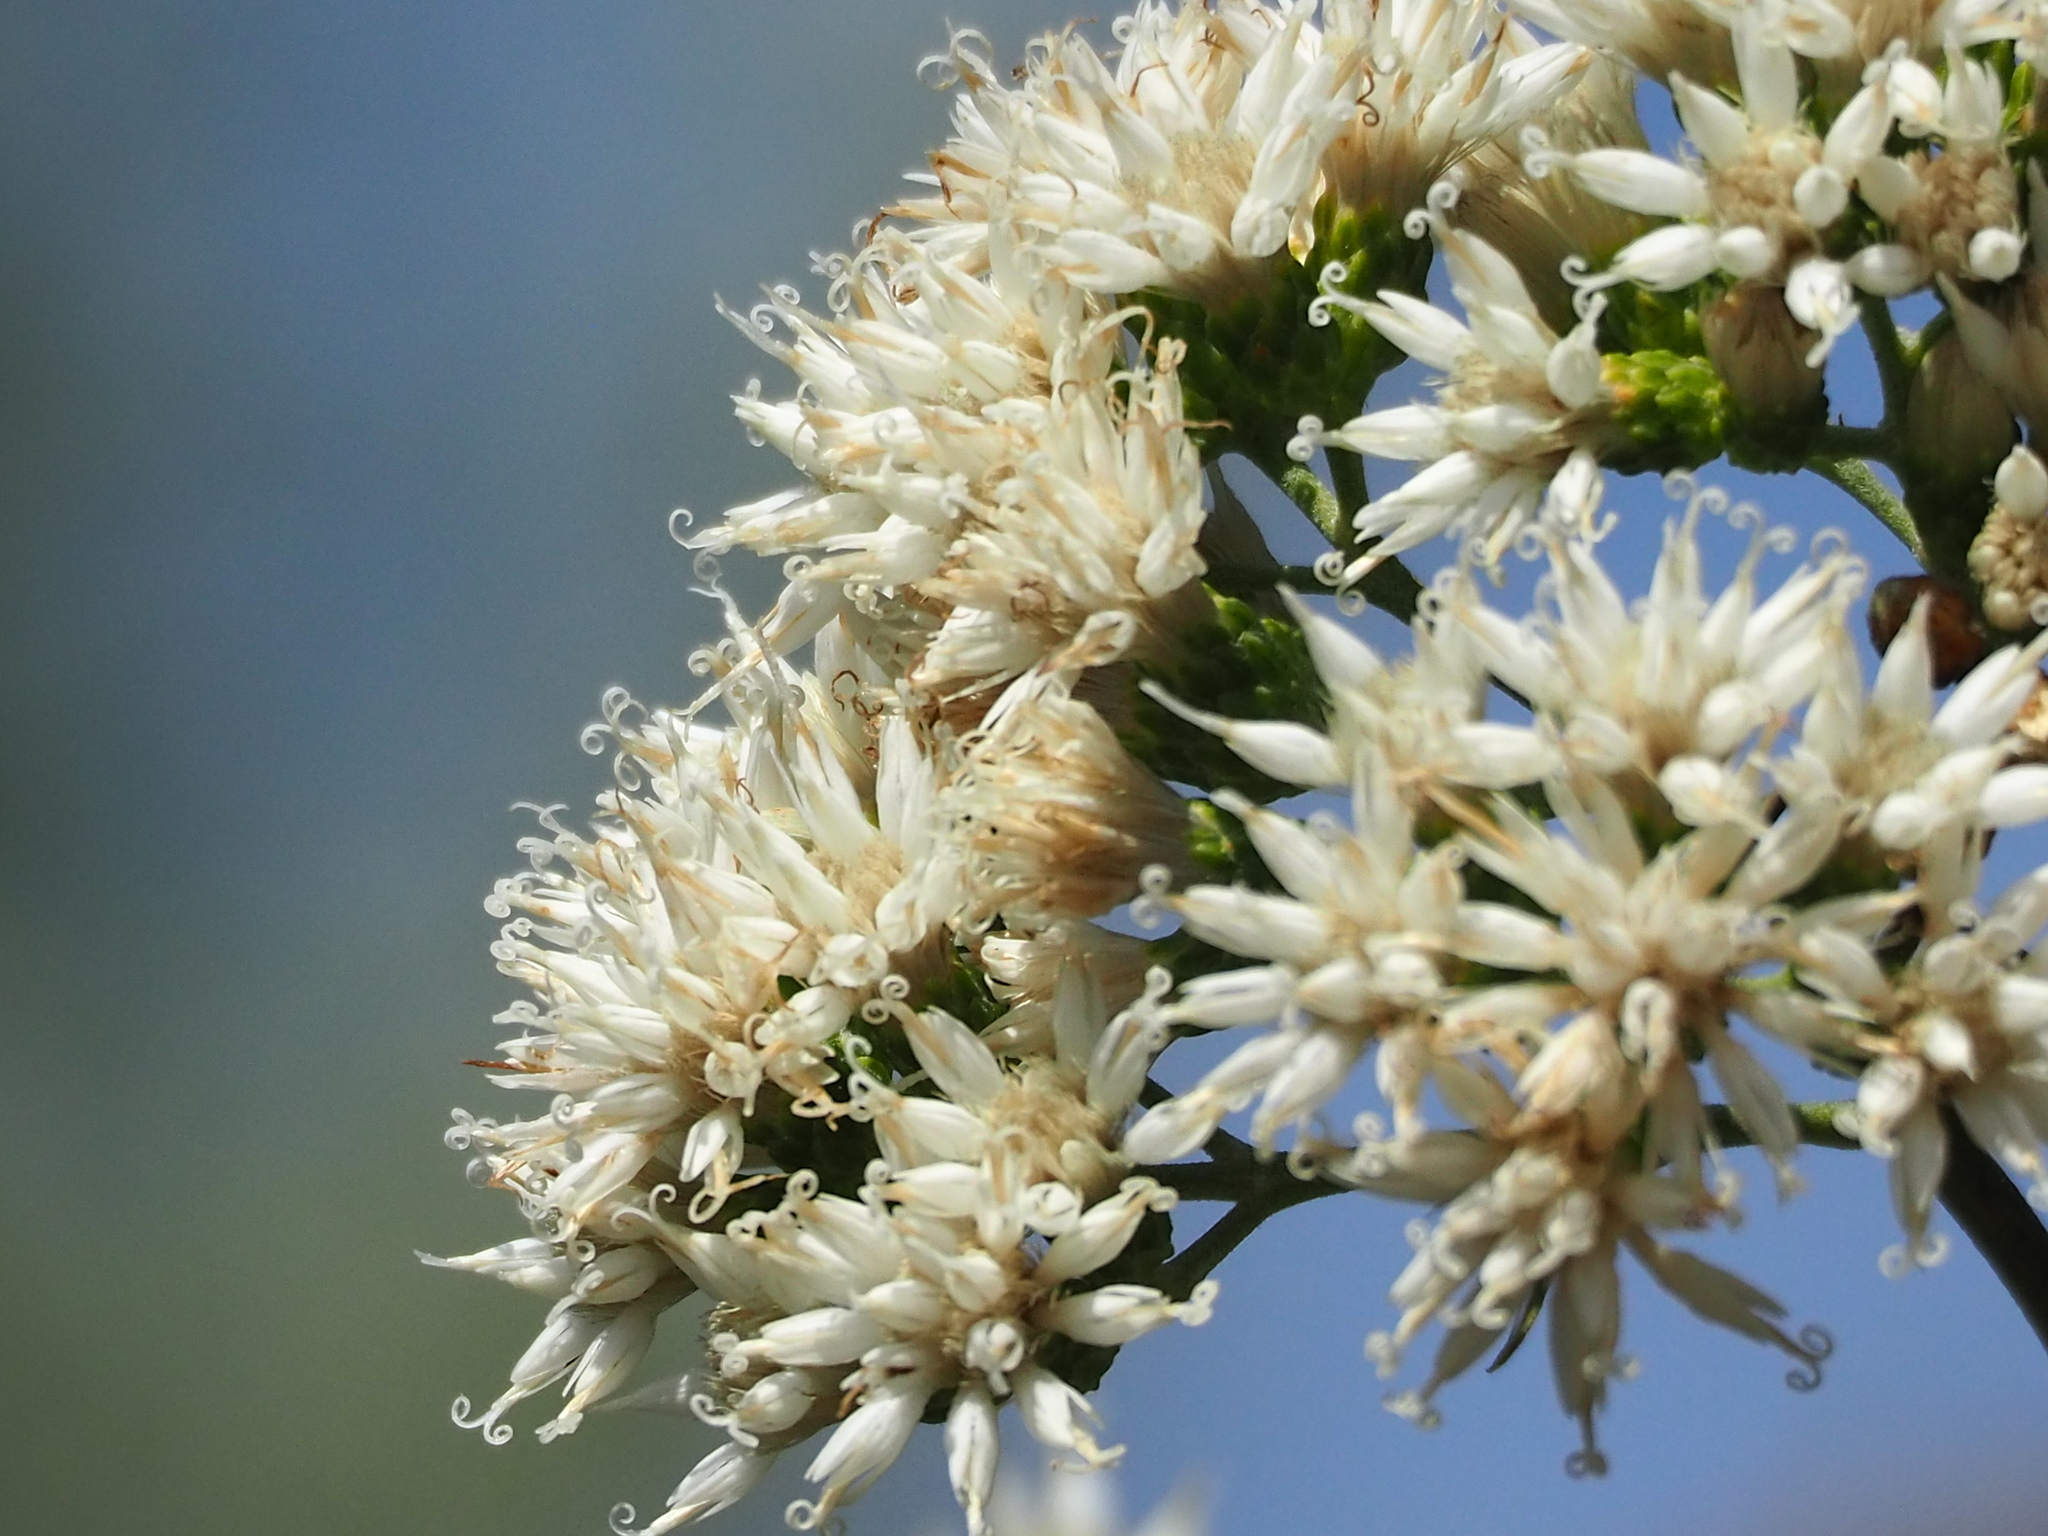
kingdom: Plantae
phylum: Tracheophyta
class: Magnoliopsida
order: Asterales
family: Asteraceae
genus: Gymnanthemum
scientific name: Gymnanthemum amygdalinum
